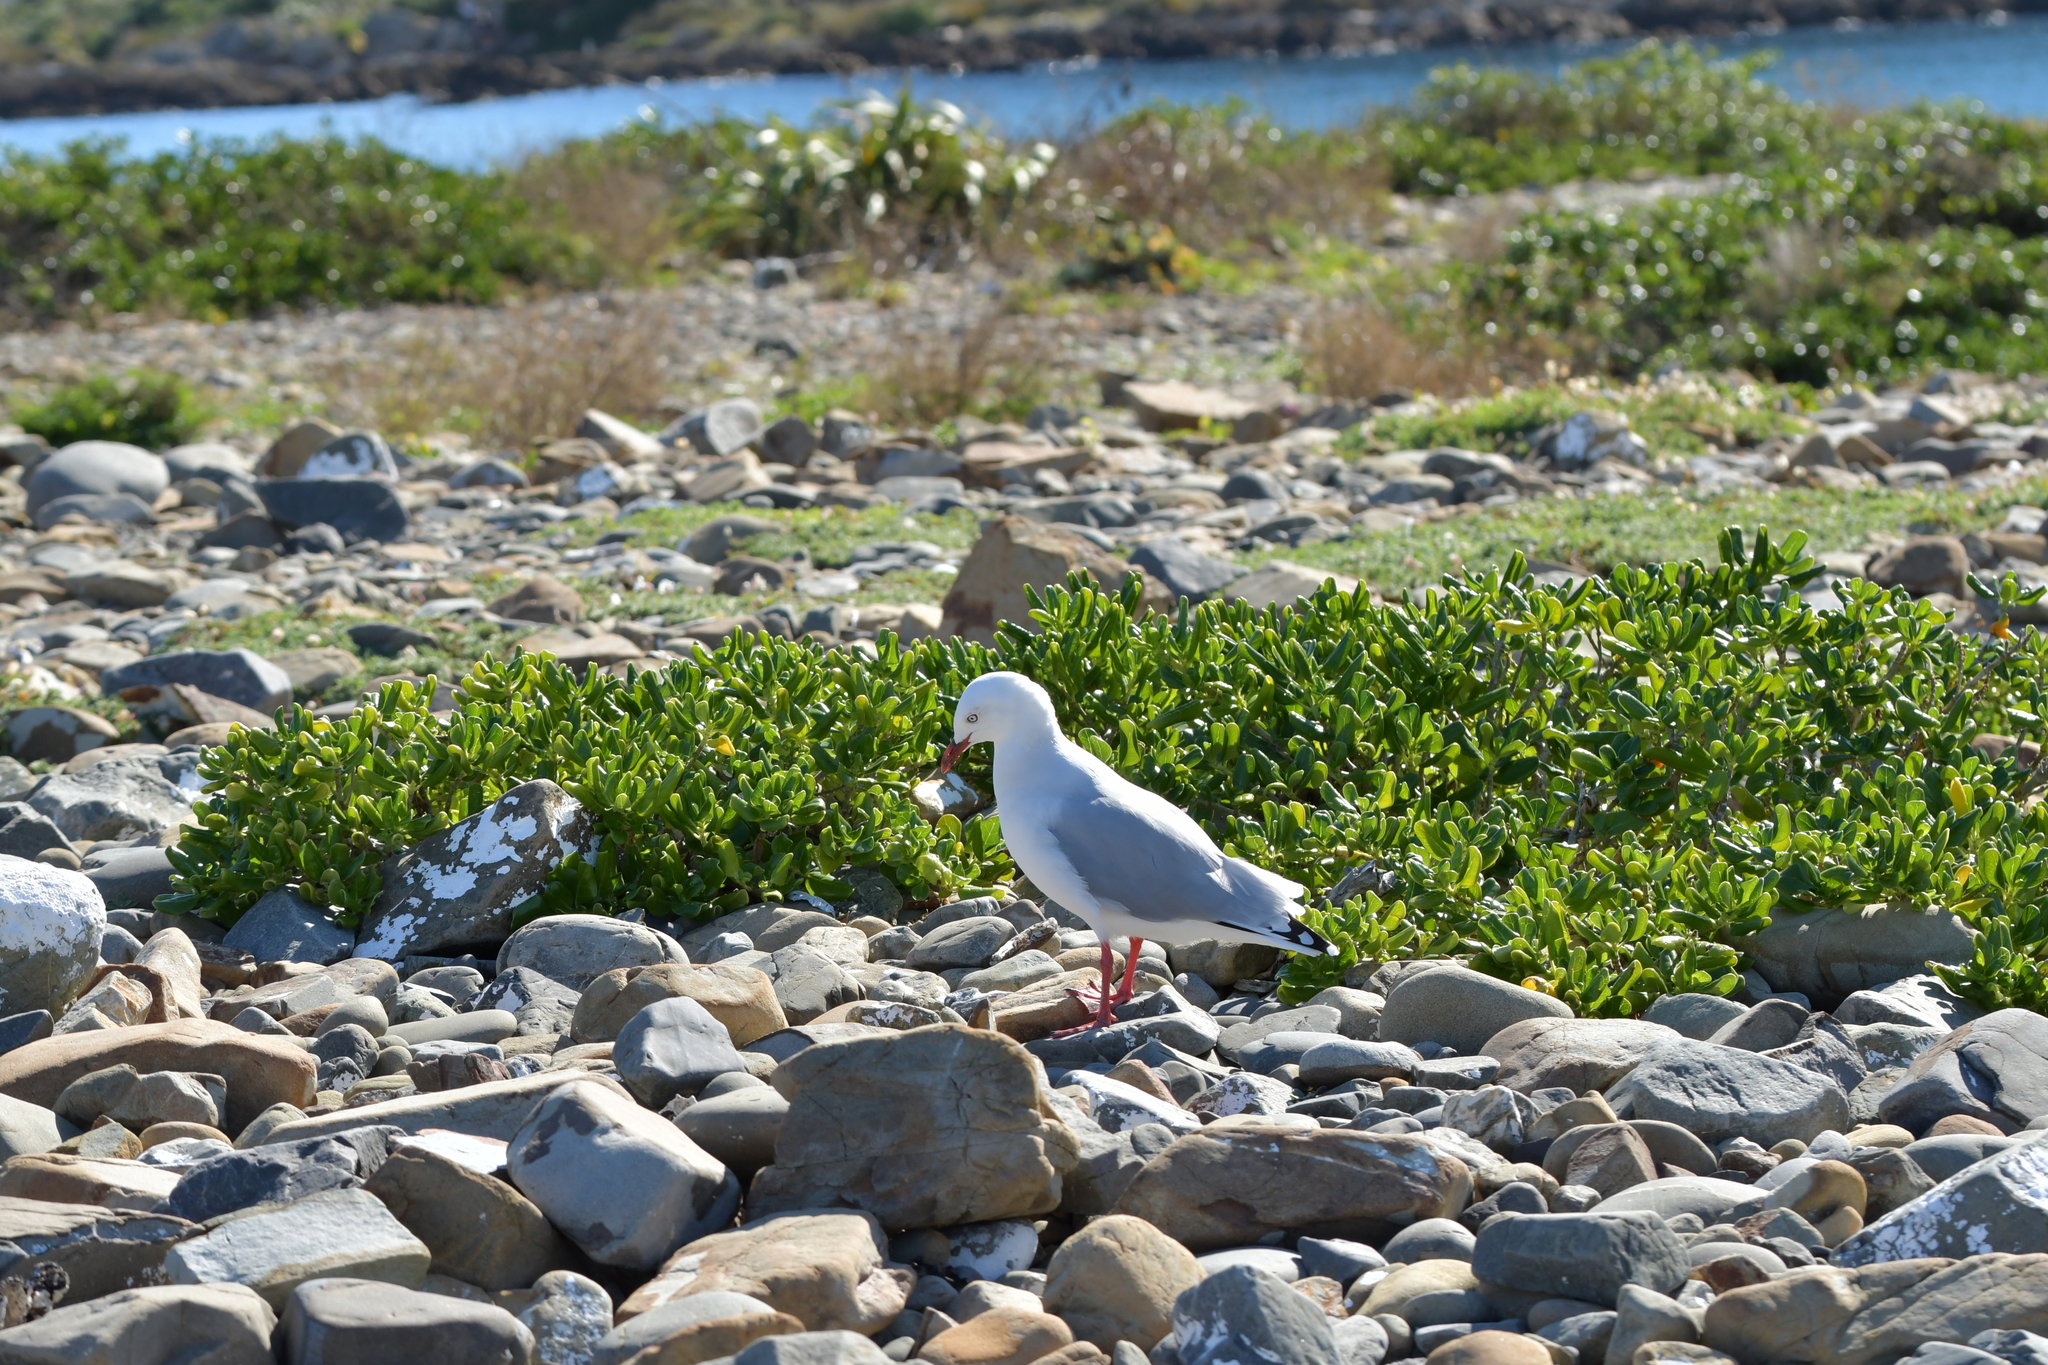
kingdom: Animalia
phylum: Chordata
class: Aves
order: Charadriiformes
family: Laridae
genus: Chroicocephalus
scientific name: Chroicocephalus novaehollandiae
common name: Silver gull
